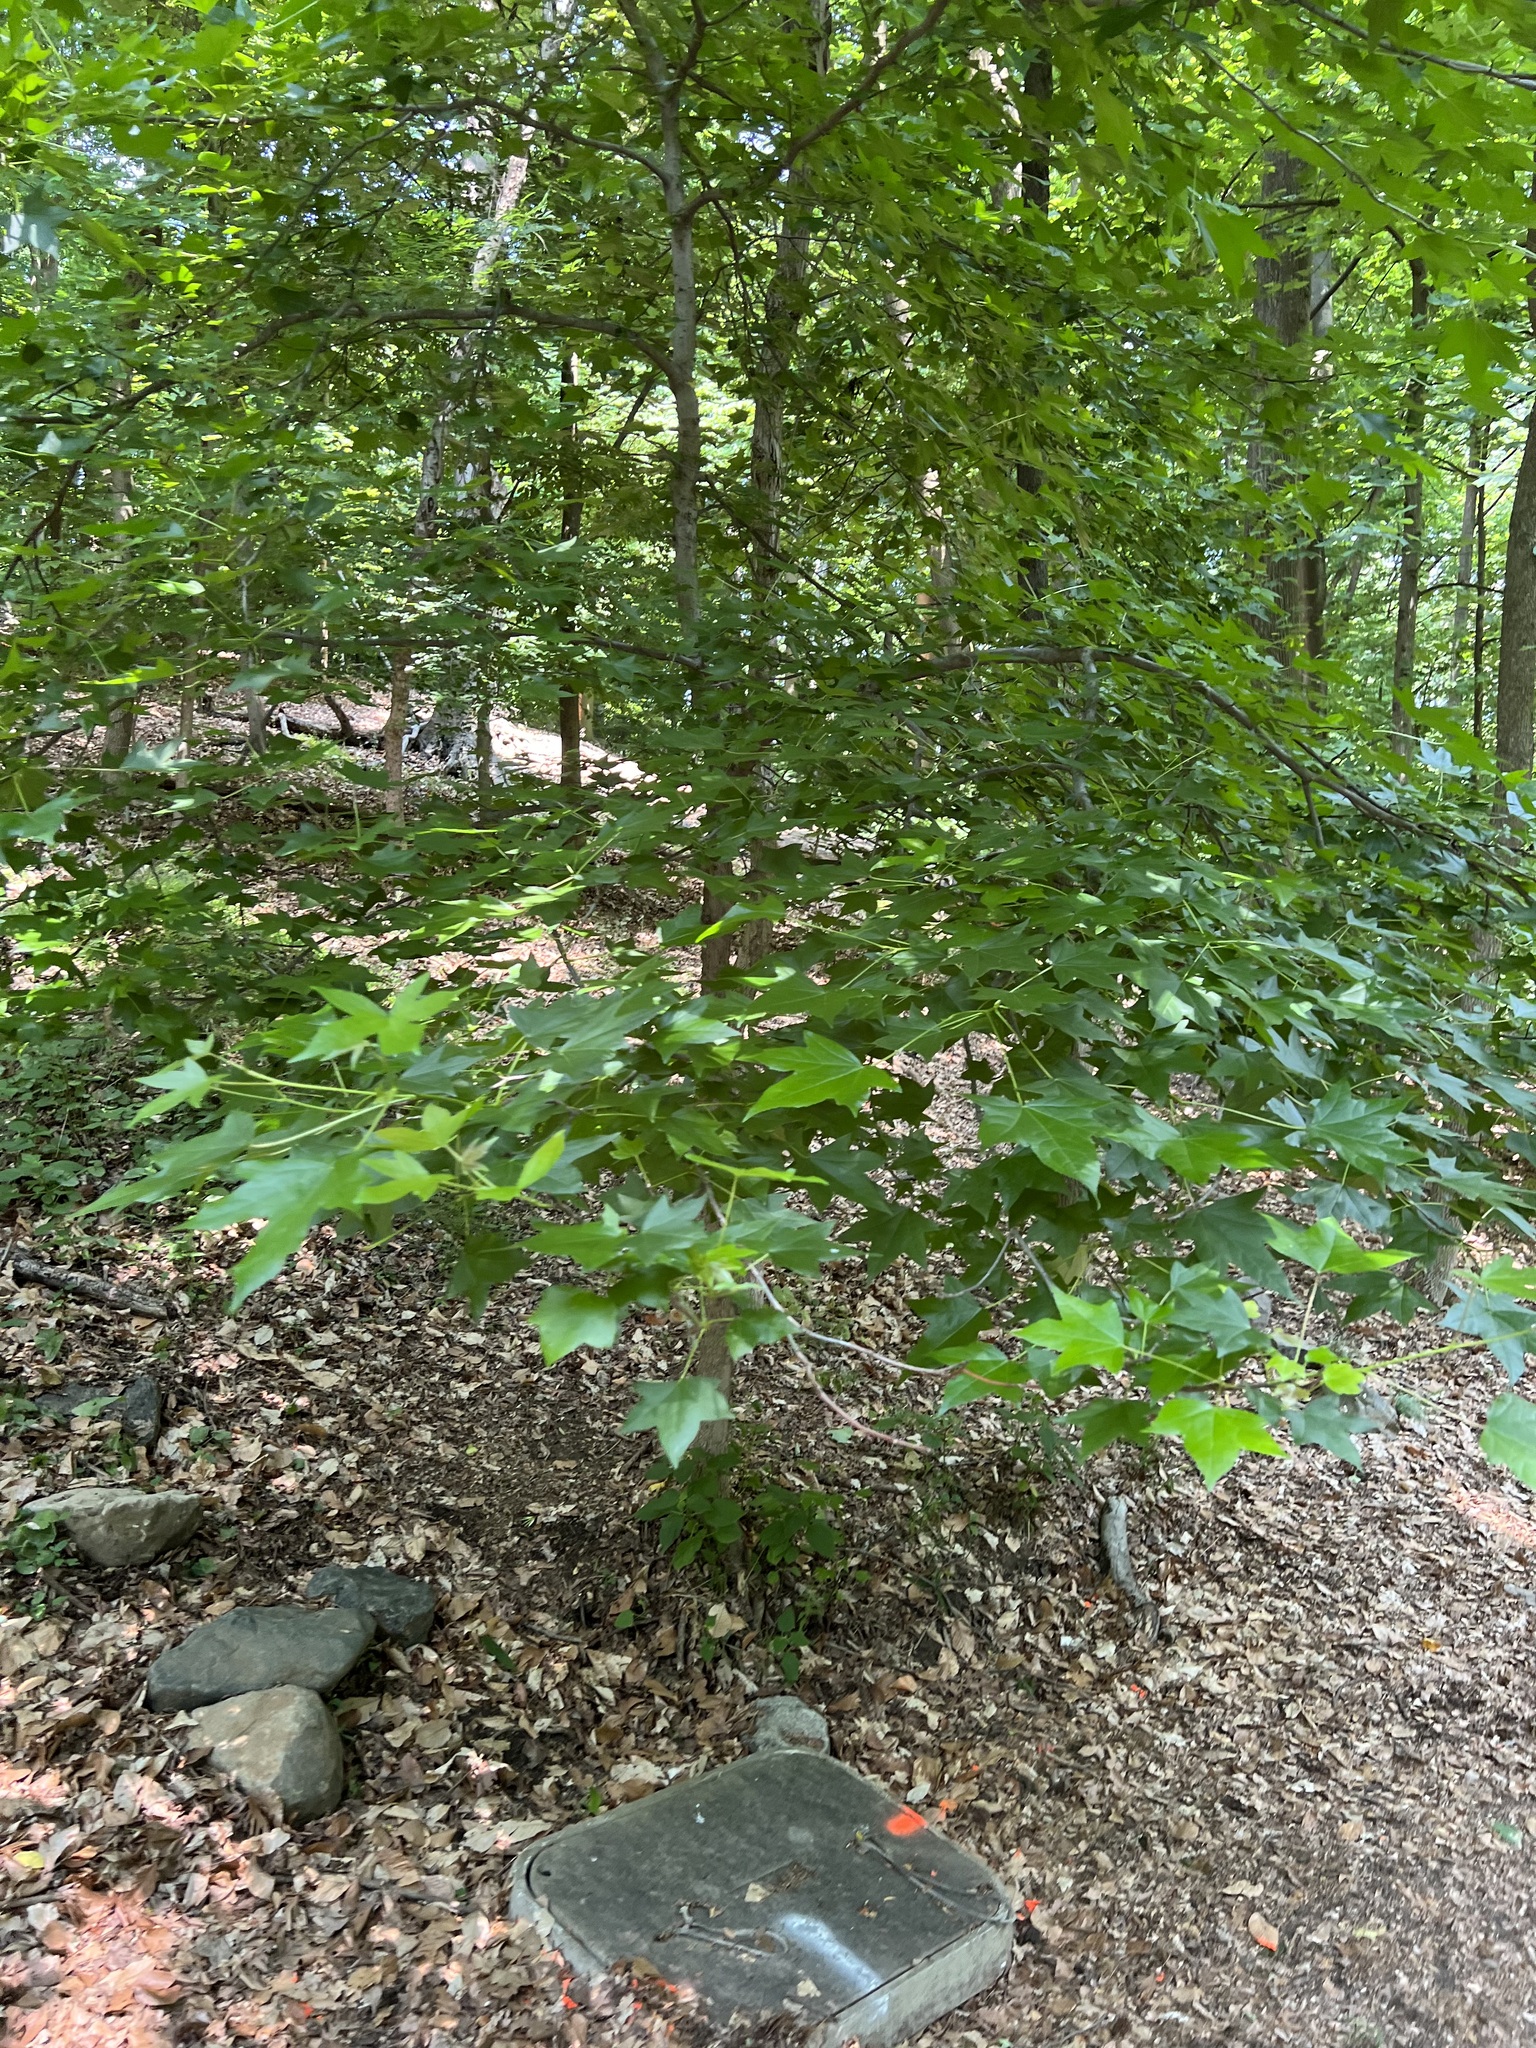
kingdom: Plantae
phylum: Tracheophyta
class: Magnoliopsida
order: Saxifragales
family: Altingiaceae
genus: Liquidambar
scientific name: Liquidambar styraciflua
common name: Sweet gum
